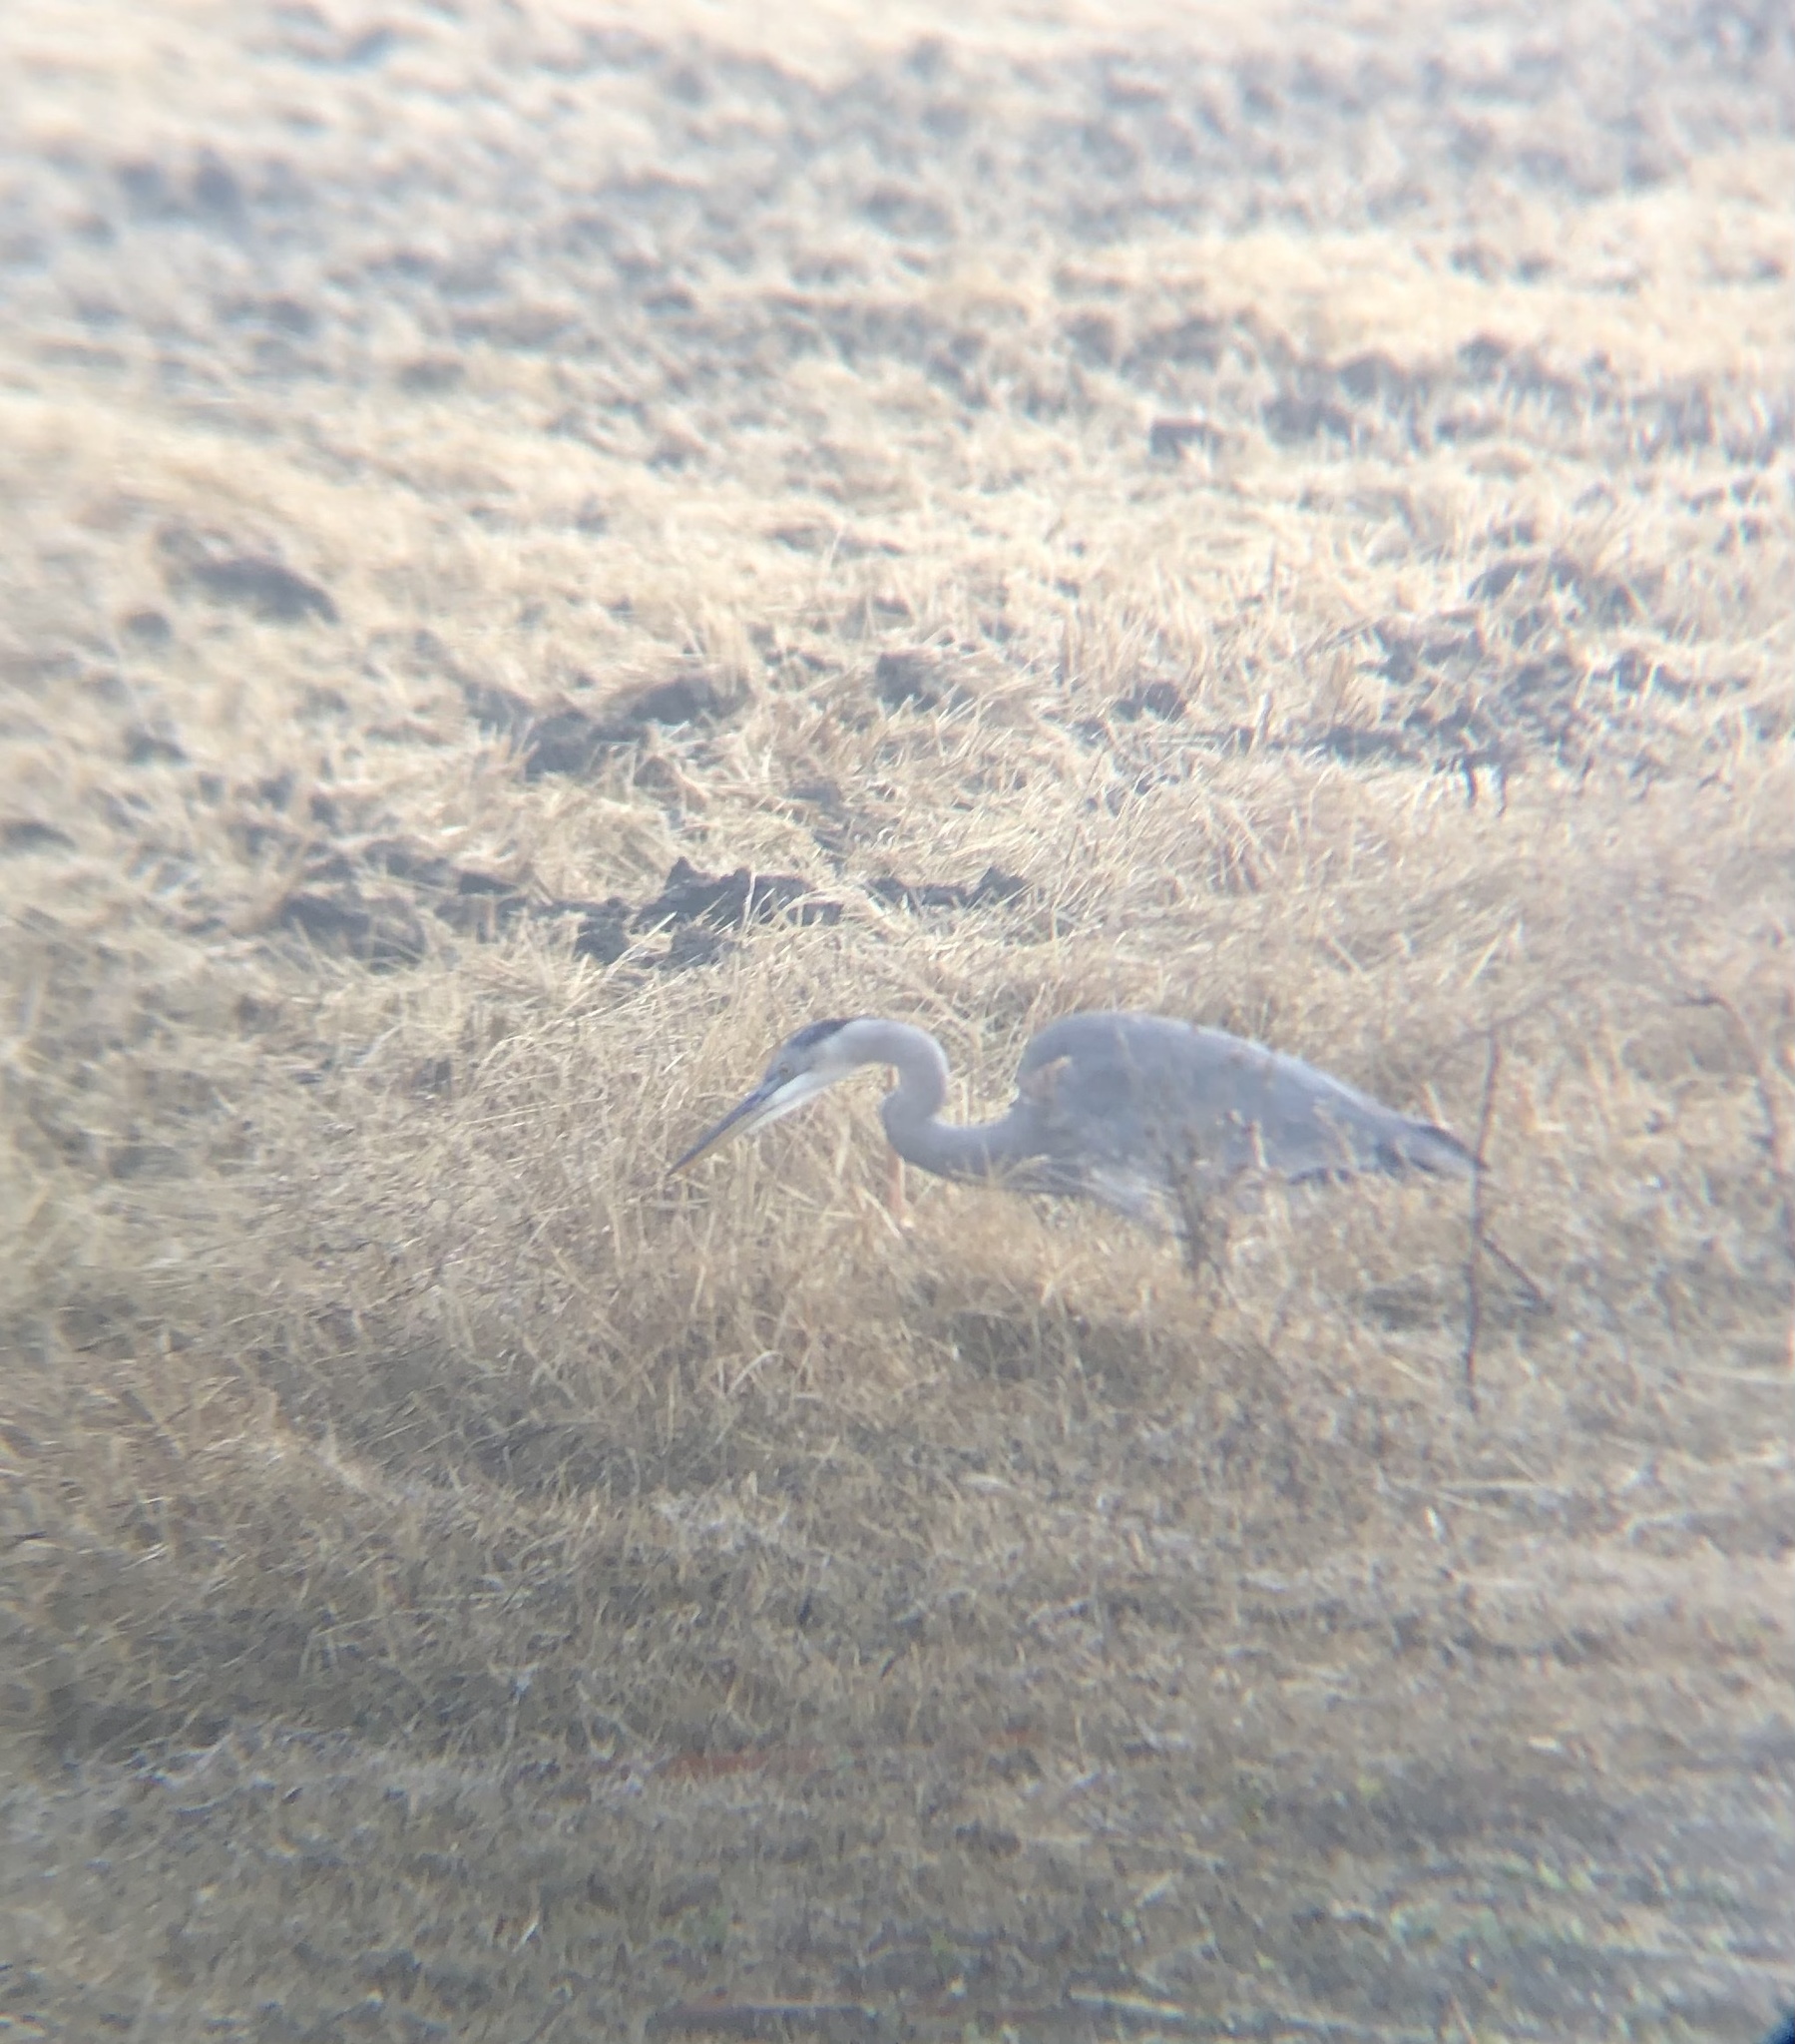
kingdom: Animalia
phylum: Chordata
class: Aves
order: Pelecaniformes
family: Ardeidae
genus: Ardea
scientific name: Ardea herodias
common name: Great blue heron
